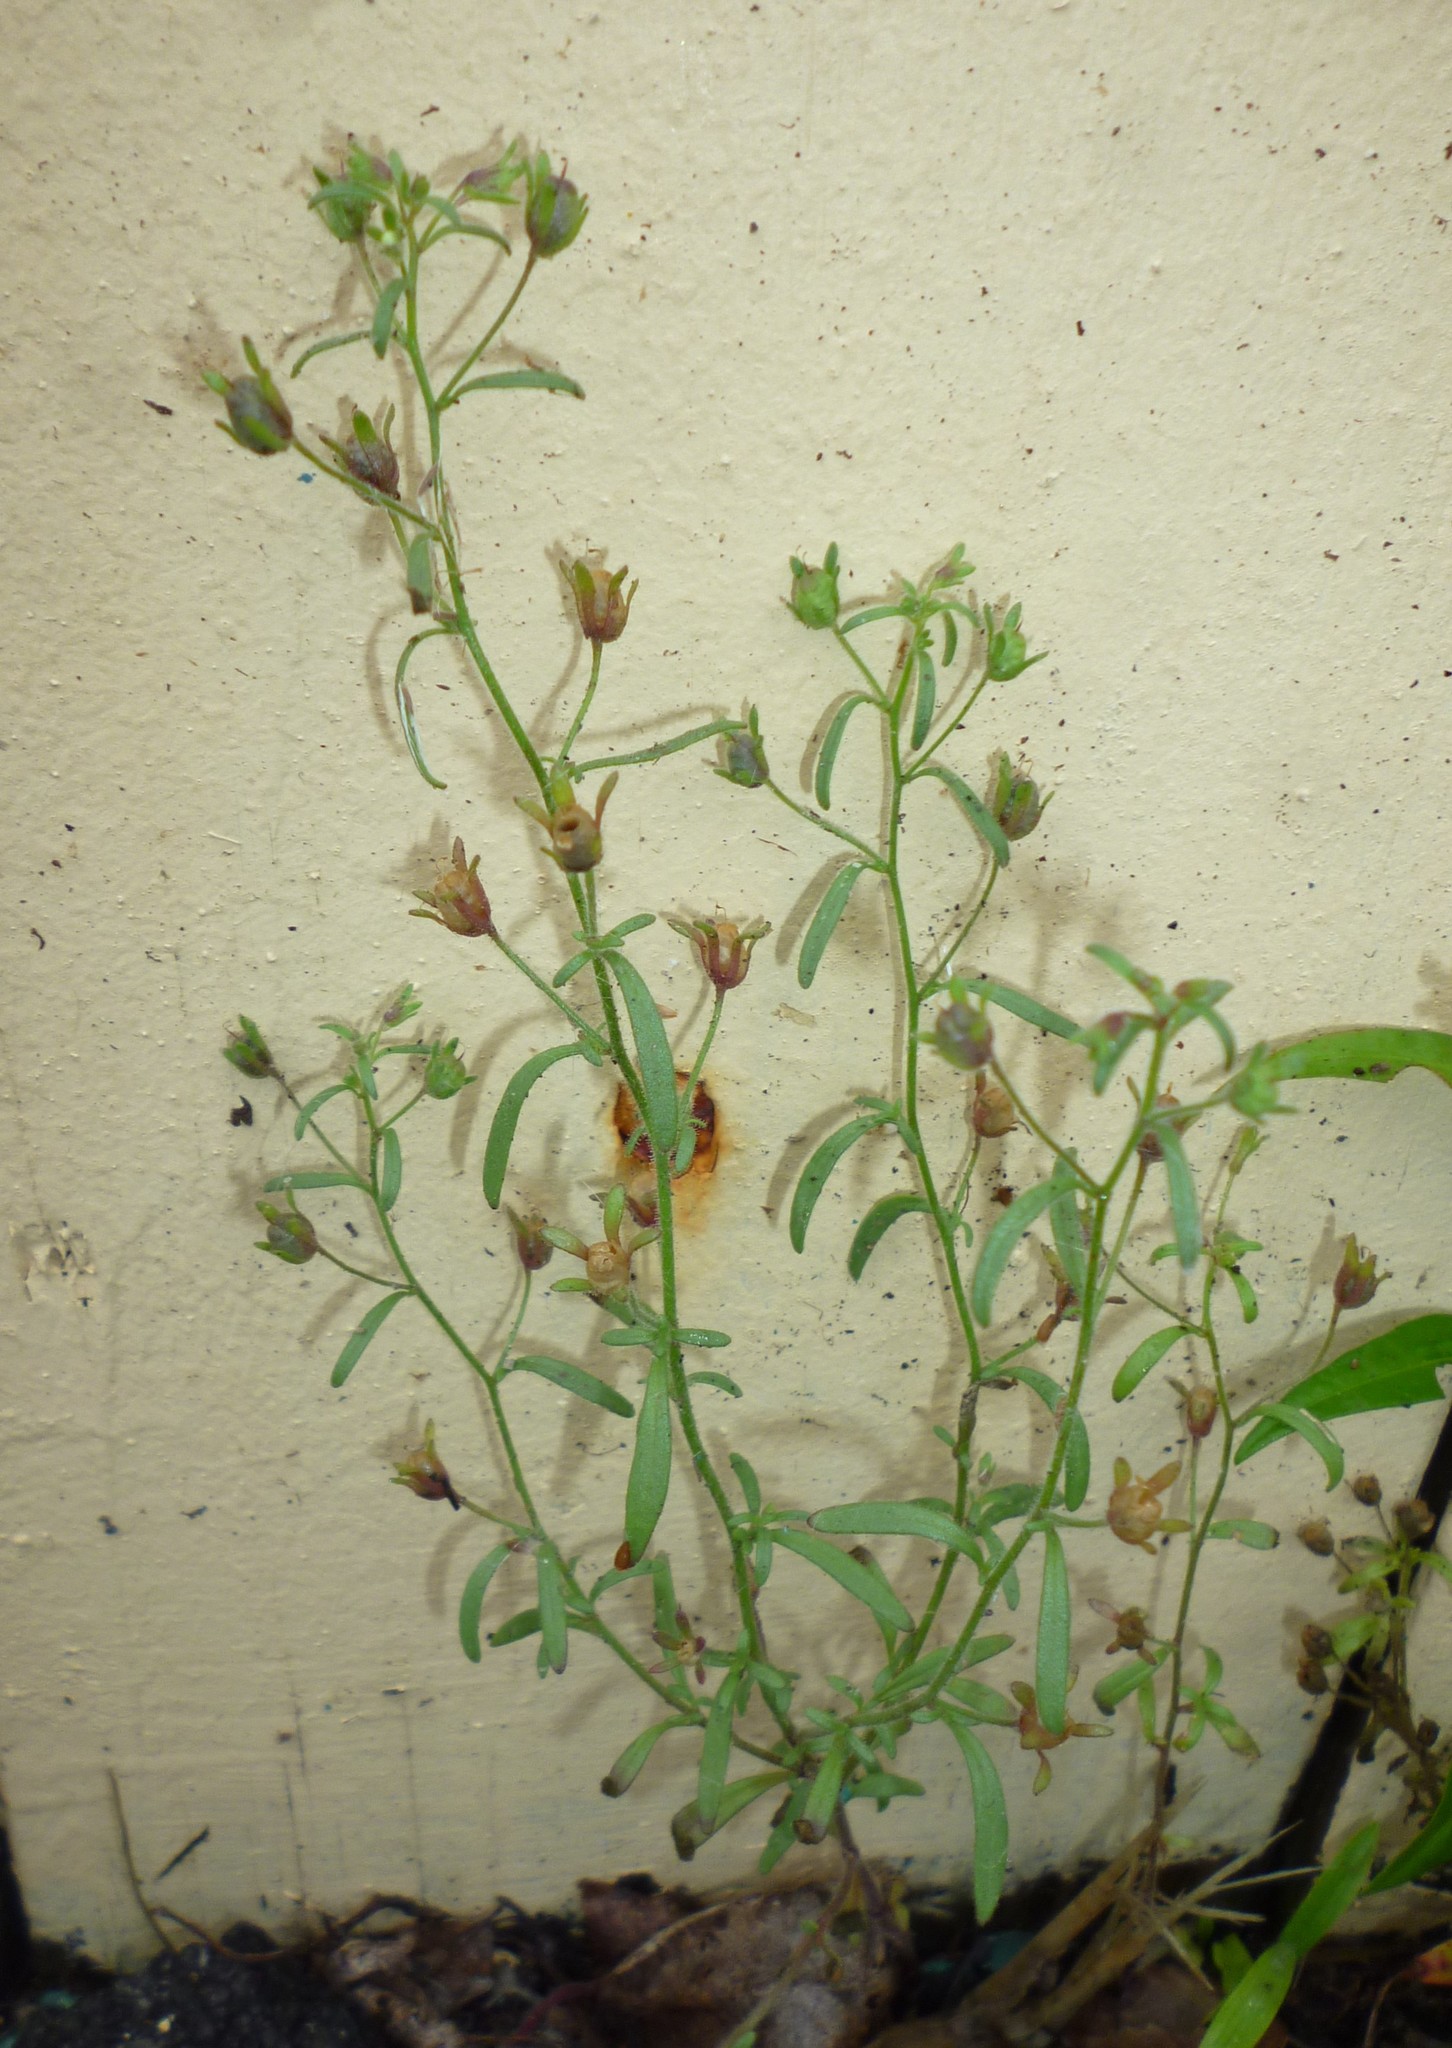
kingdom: Plantae
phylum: Tracheophyta
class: Magnoliopsida
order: Lamiales
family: Plantaginaceae
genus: Chaenorhinum
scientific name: Chaenorhinum minus
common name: Dwarf snapdragon
